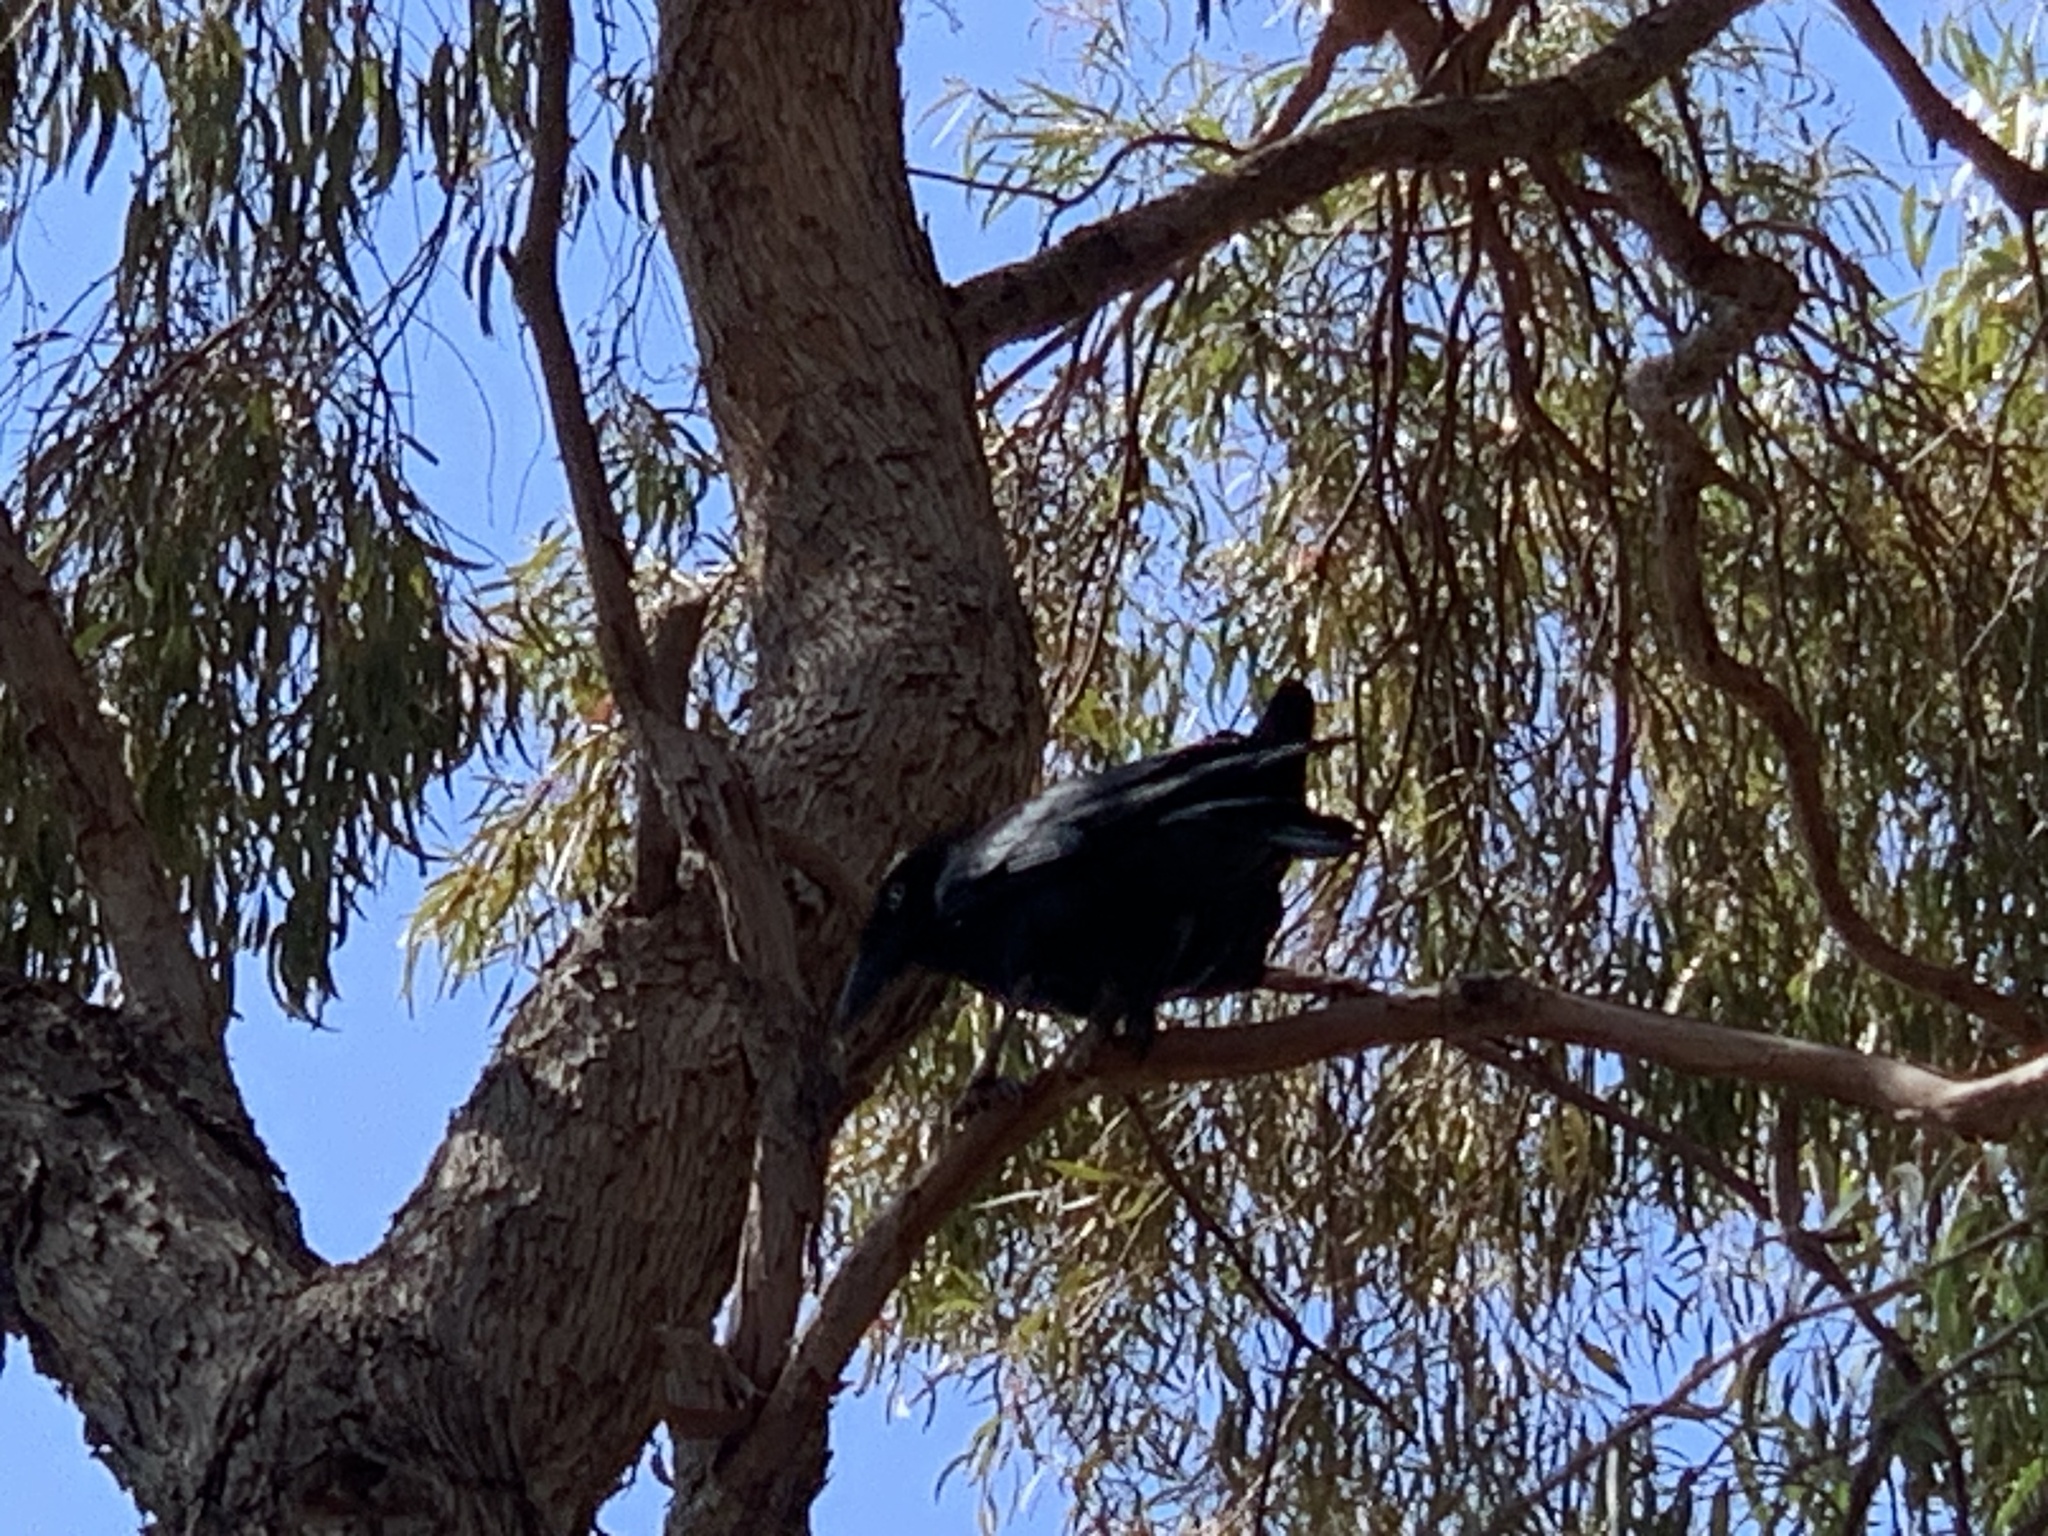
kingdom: Animalia
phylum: Chordata
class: Aves
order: Passeriformes
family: Corvidae
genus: Corvus
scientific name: Corvus tasmanicus
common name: Forest raven
